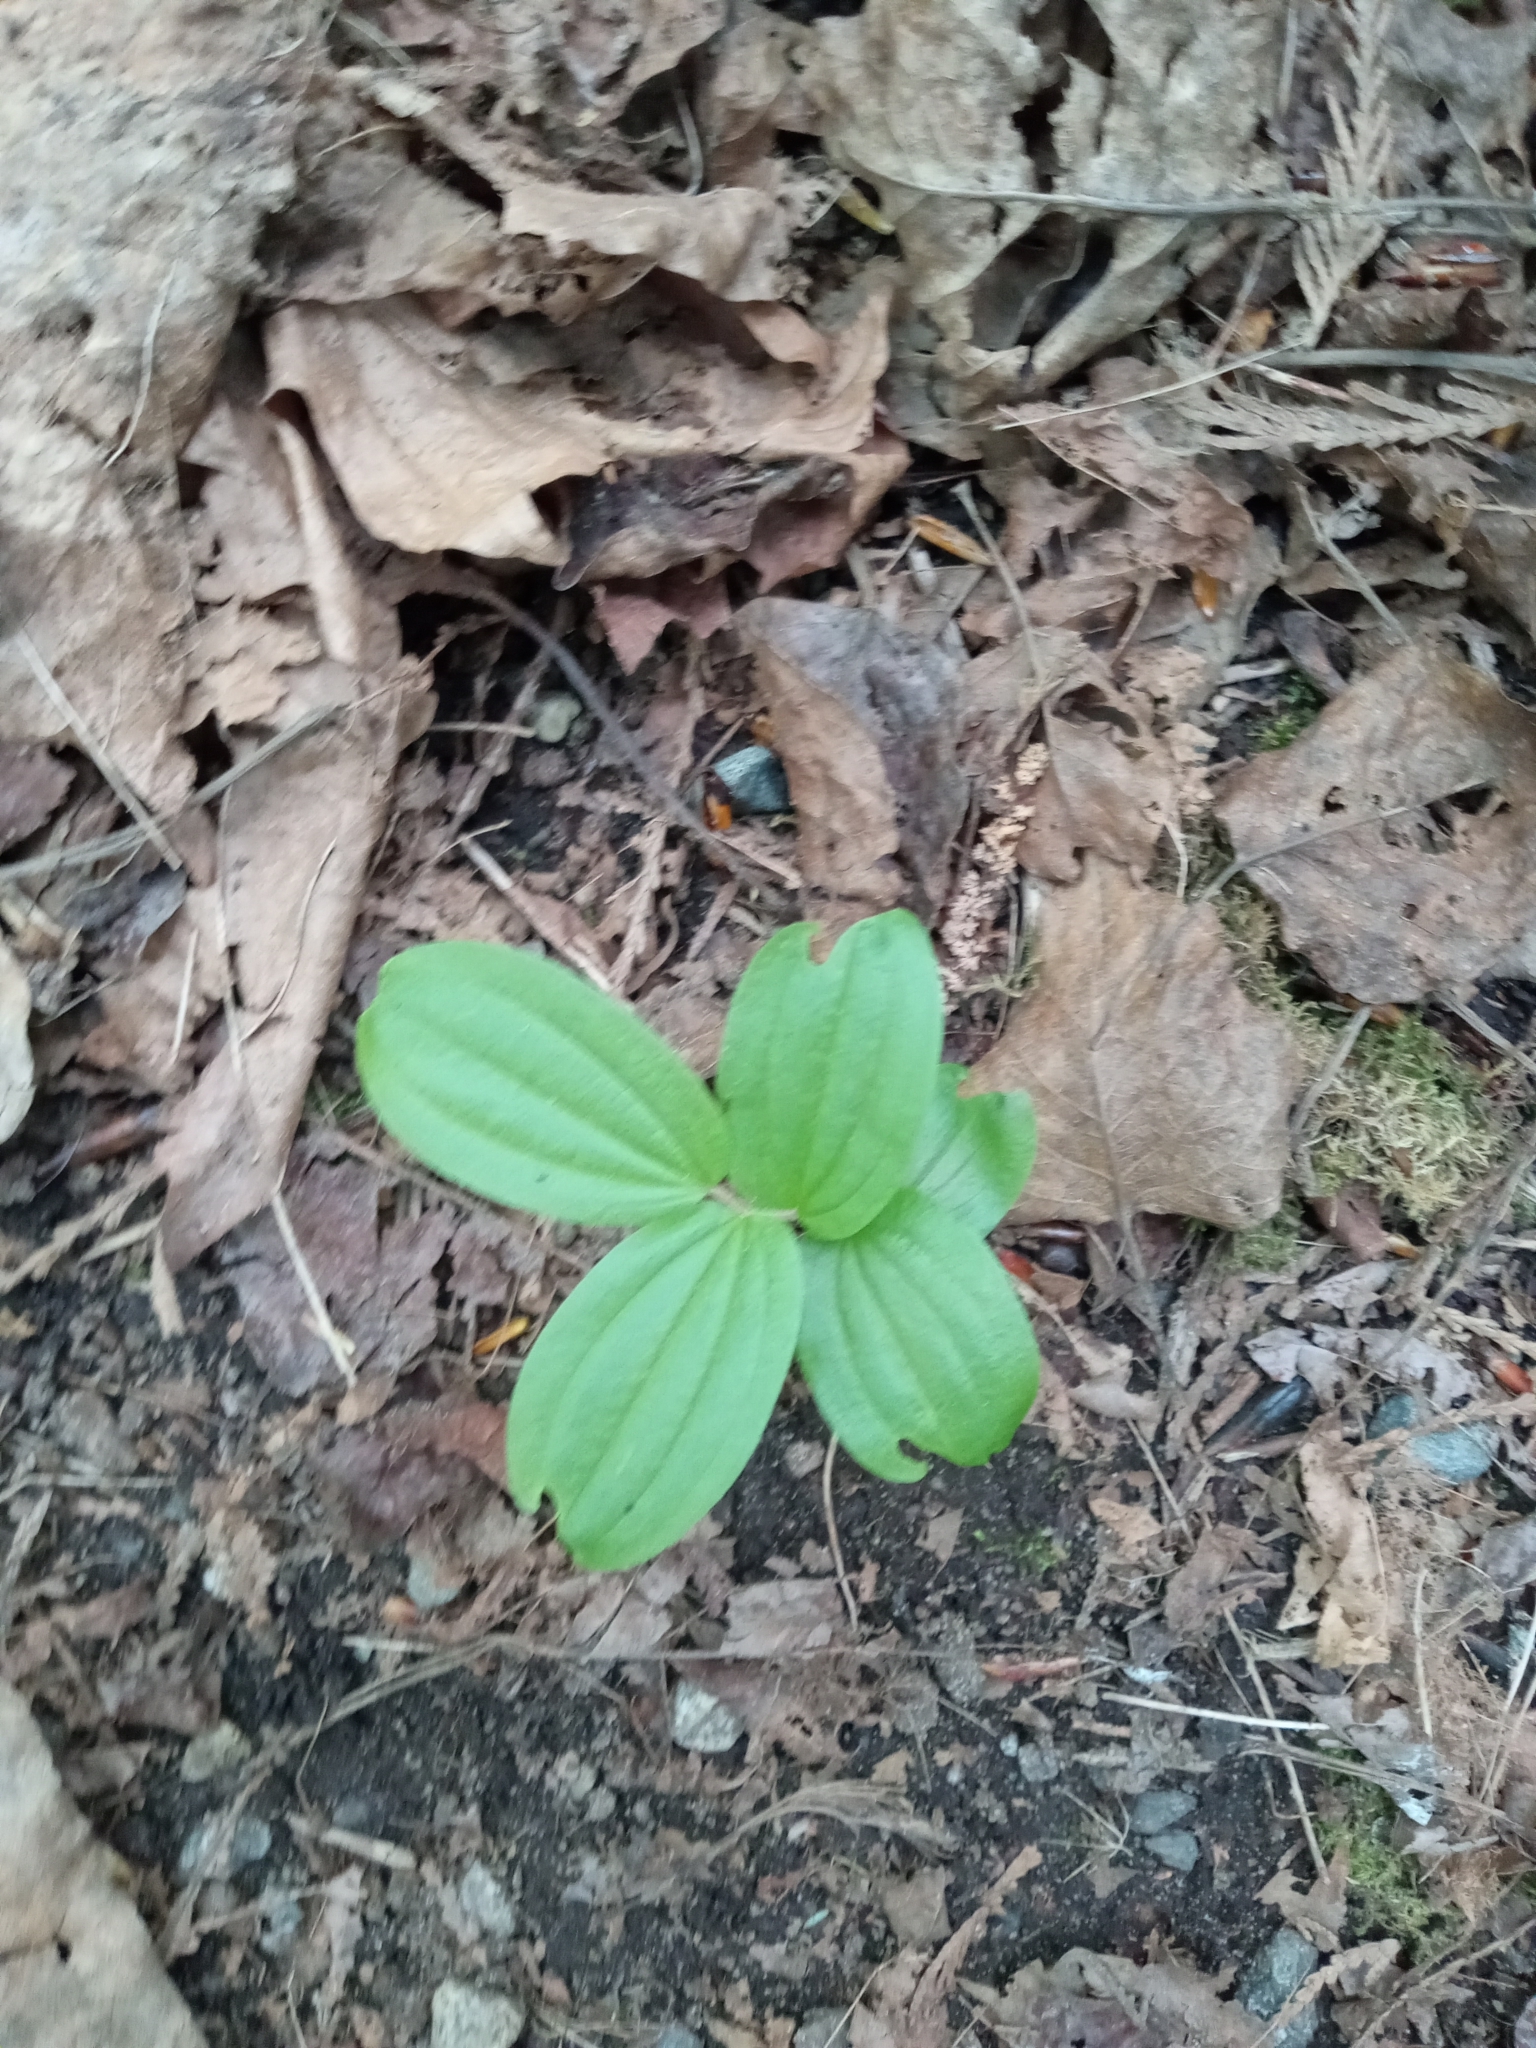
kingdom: Plantae
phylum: Tracheophyta
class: Liliopsida
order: Liliales
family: Liliaceae
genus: Prosartes
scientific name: Prosartes hookeri
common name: Fairy-bells
